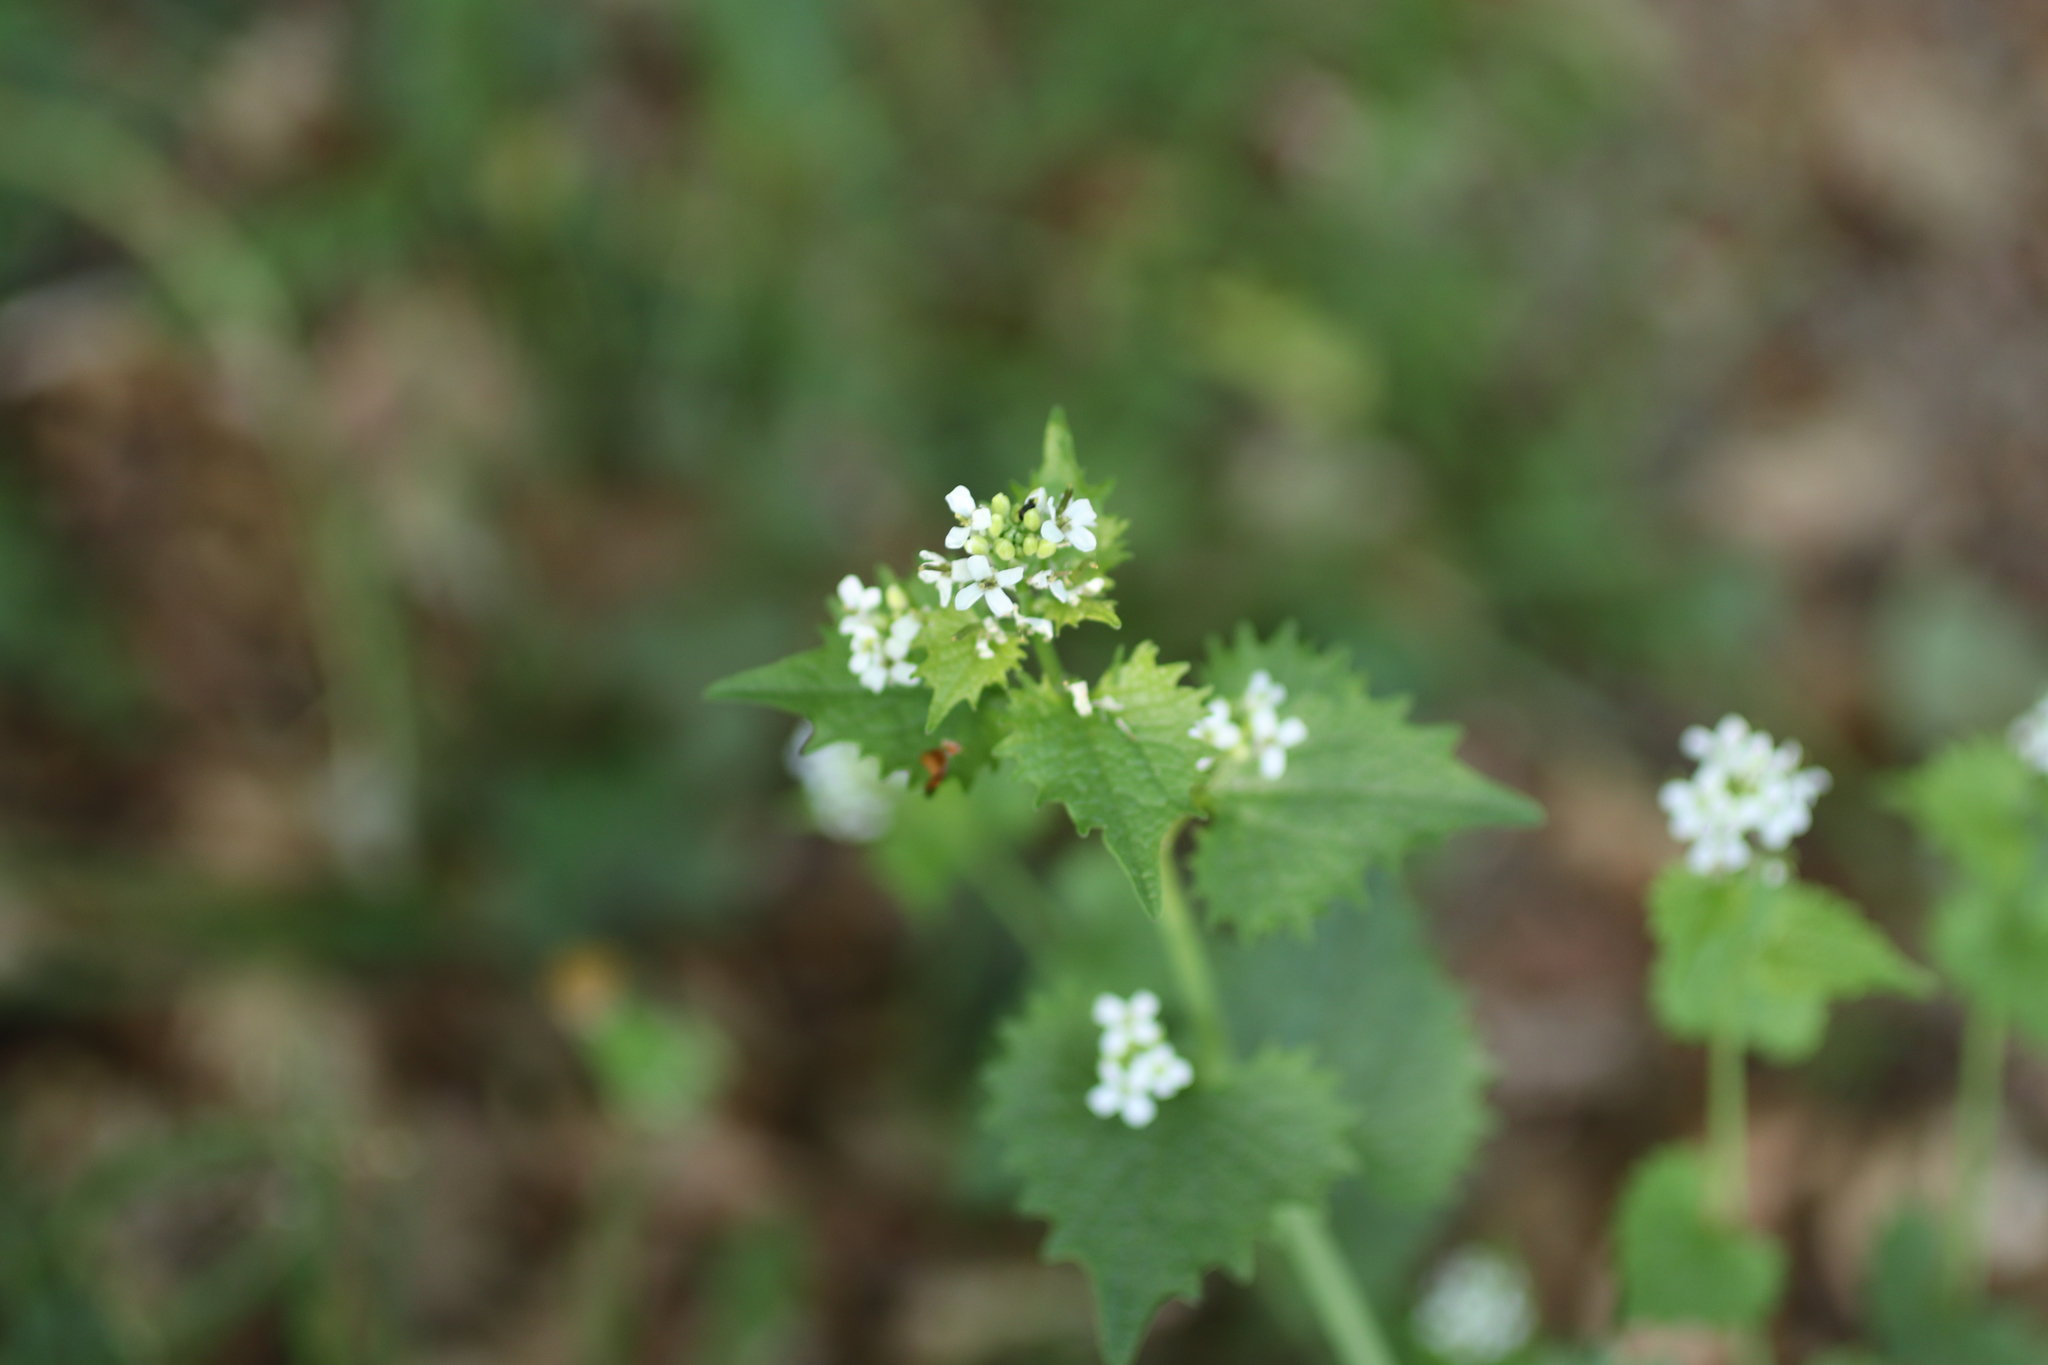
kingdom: Plantae
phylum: Tracheophyta
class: Magnoliopsida
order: Brassicales
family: Brassicaceae
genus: Alliaria
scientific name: Alliaria petiolata
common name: Garlic mustard
